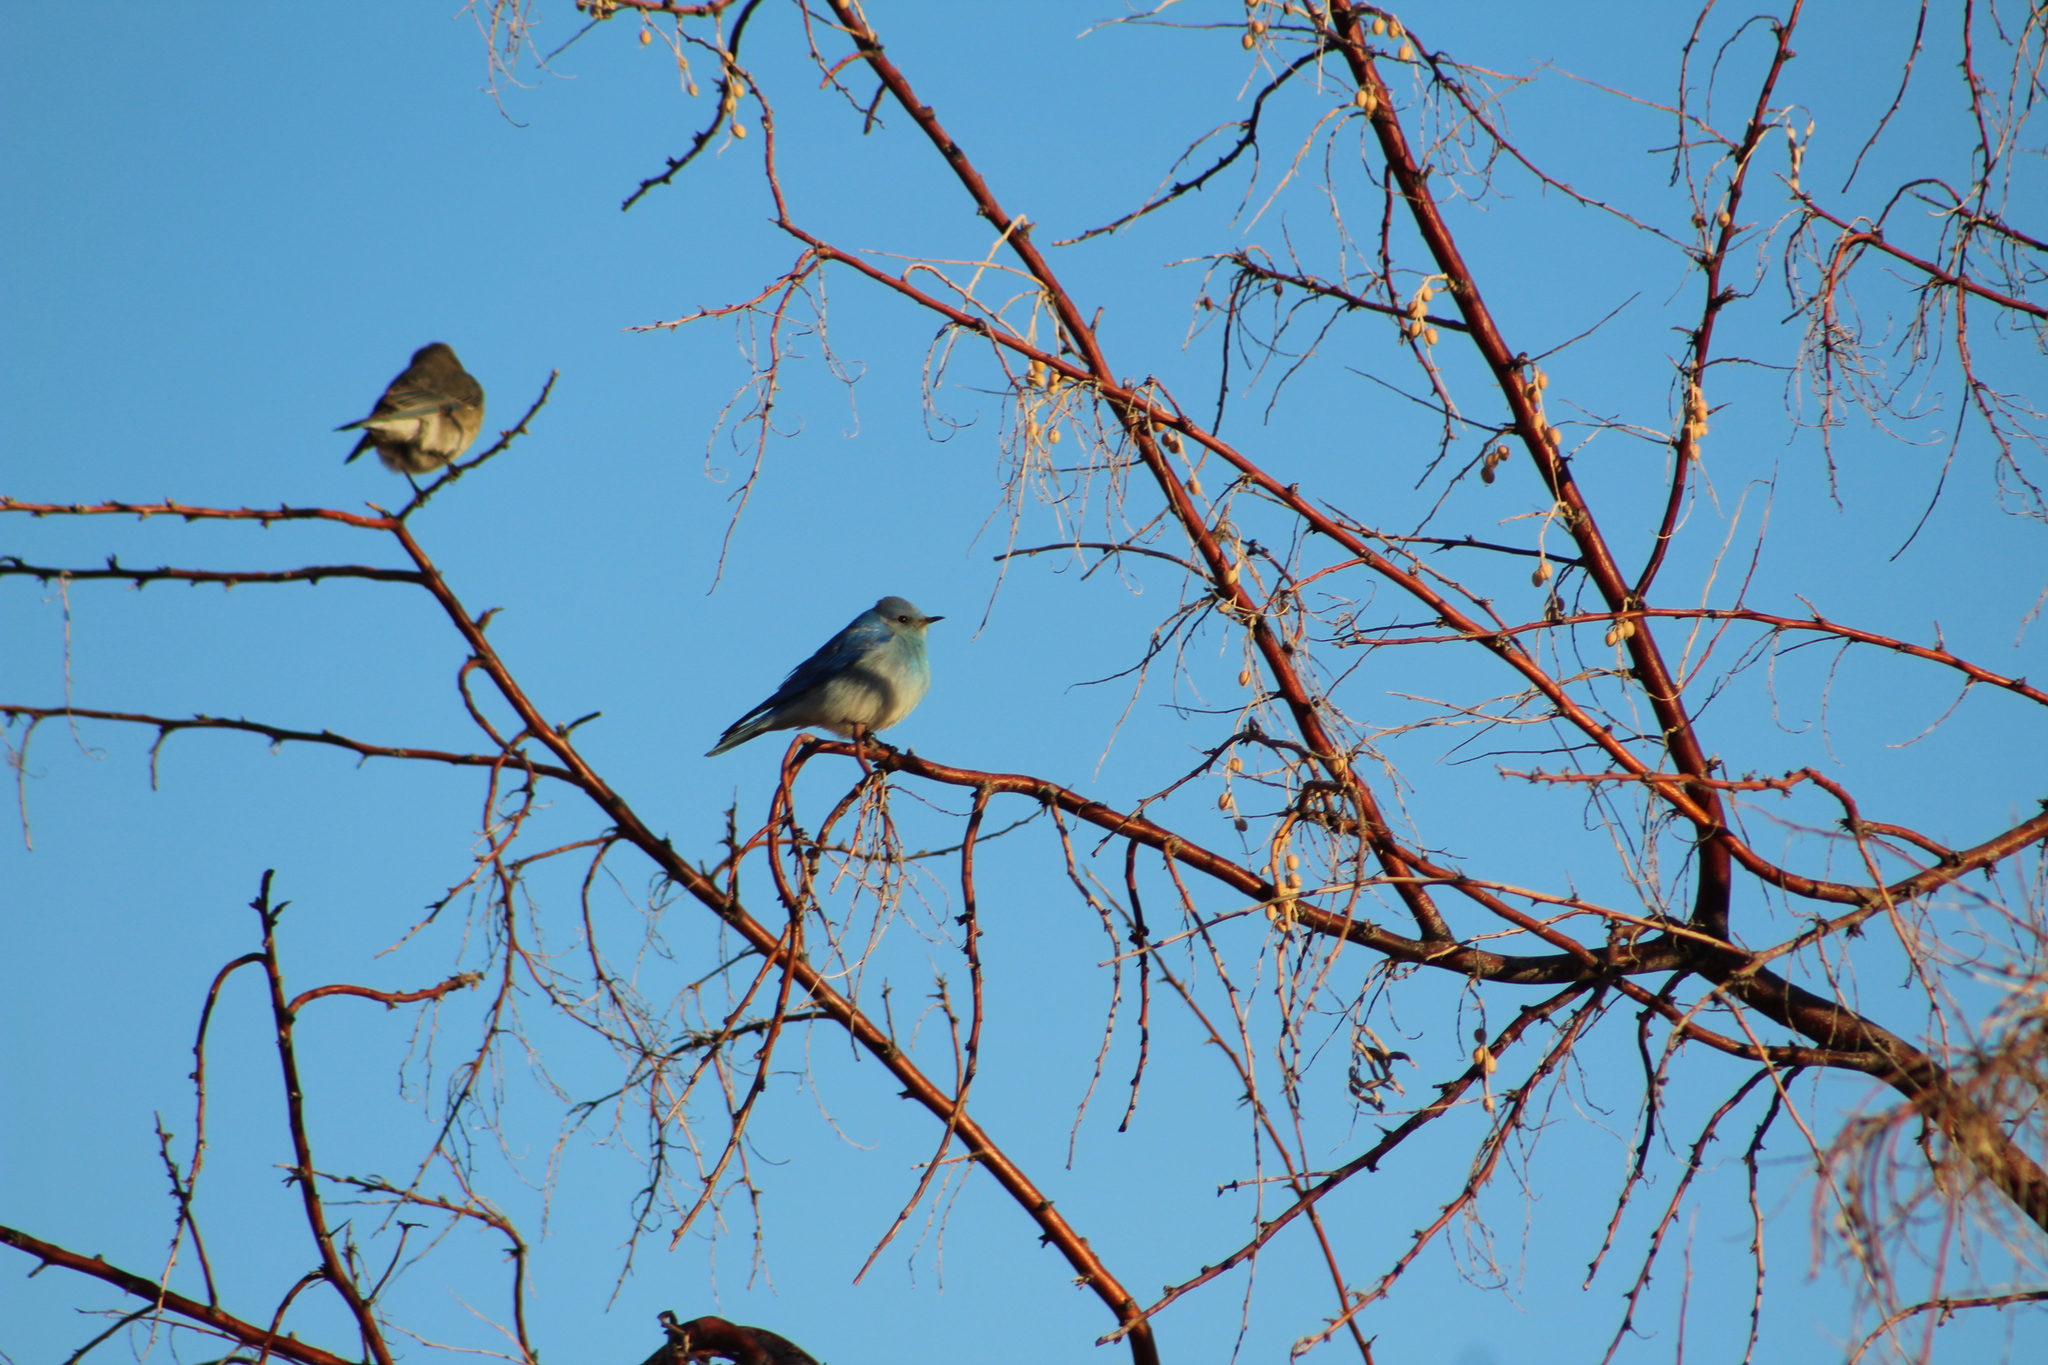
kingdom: Animalia
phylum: Chordata
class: Aves
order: Passeriformes
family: Turdidae
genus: Sialia
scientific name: Sialia currucoides
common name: Mountain bluebird
